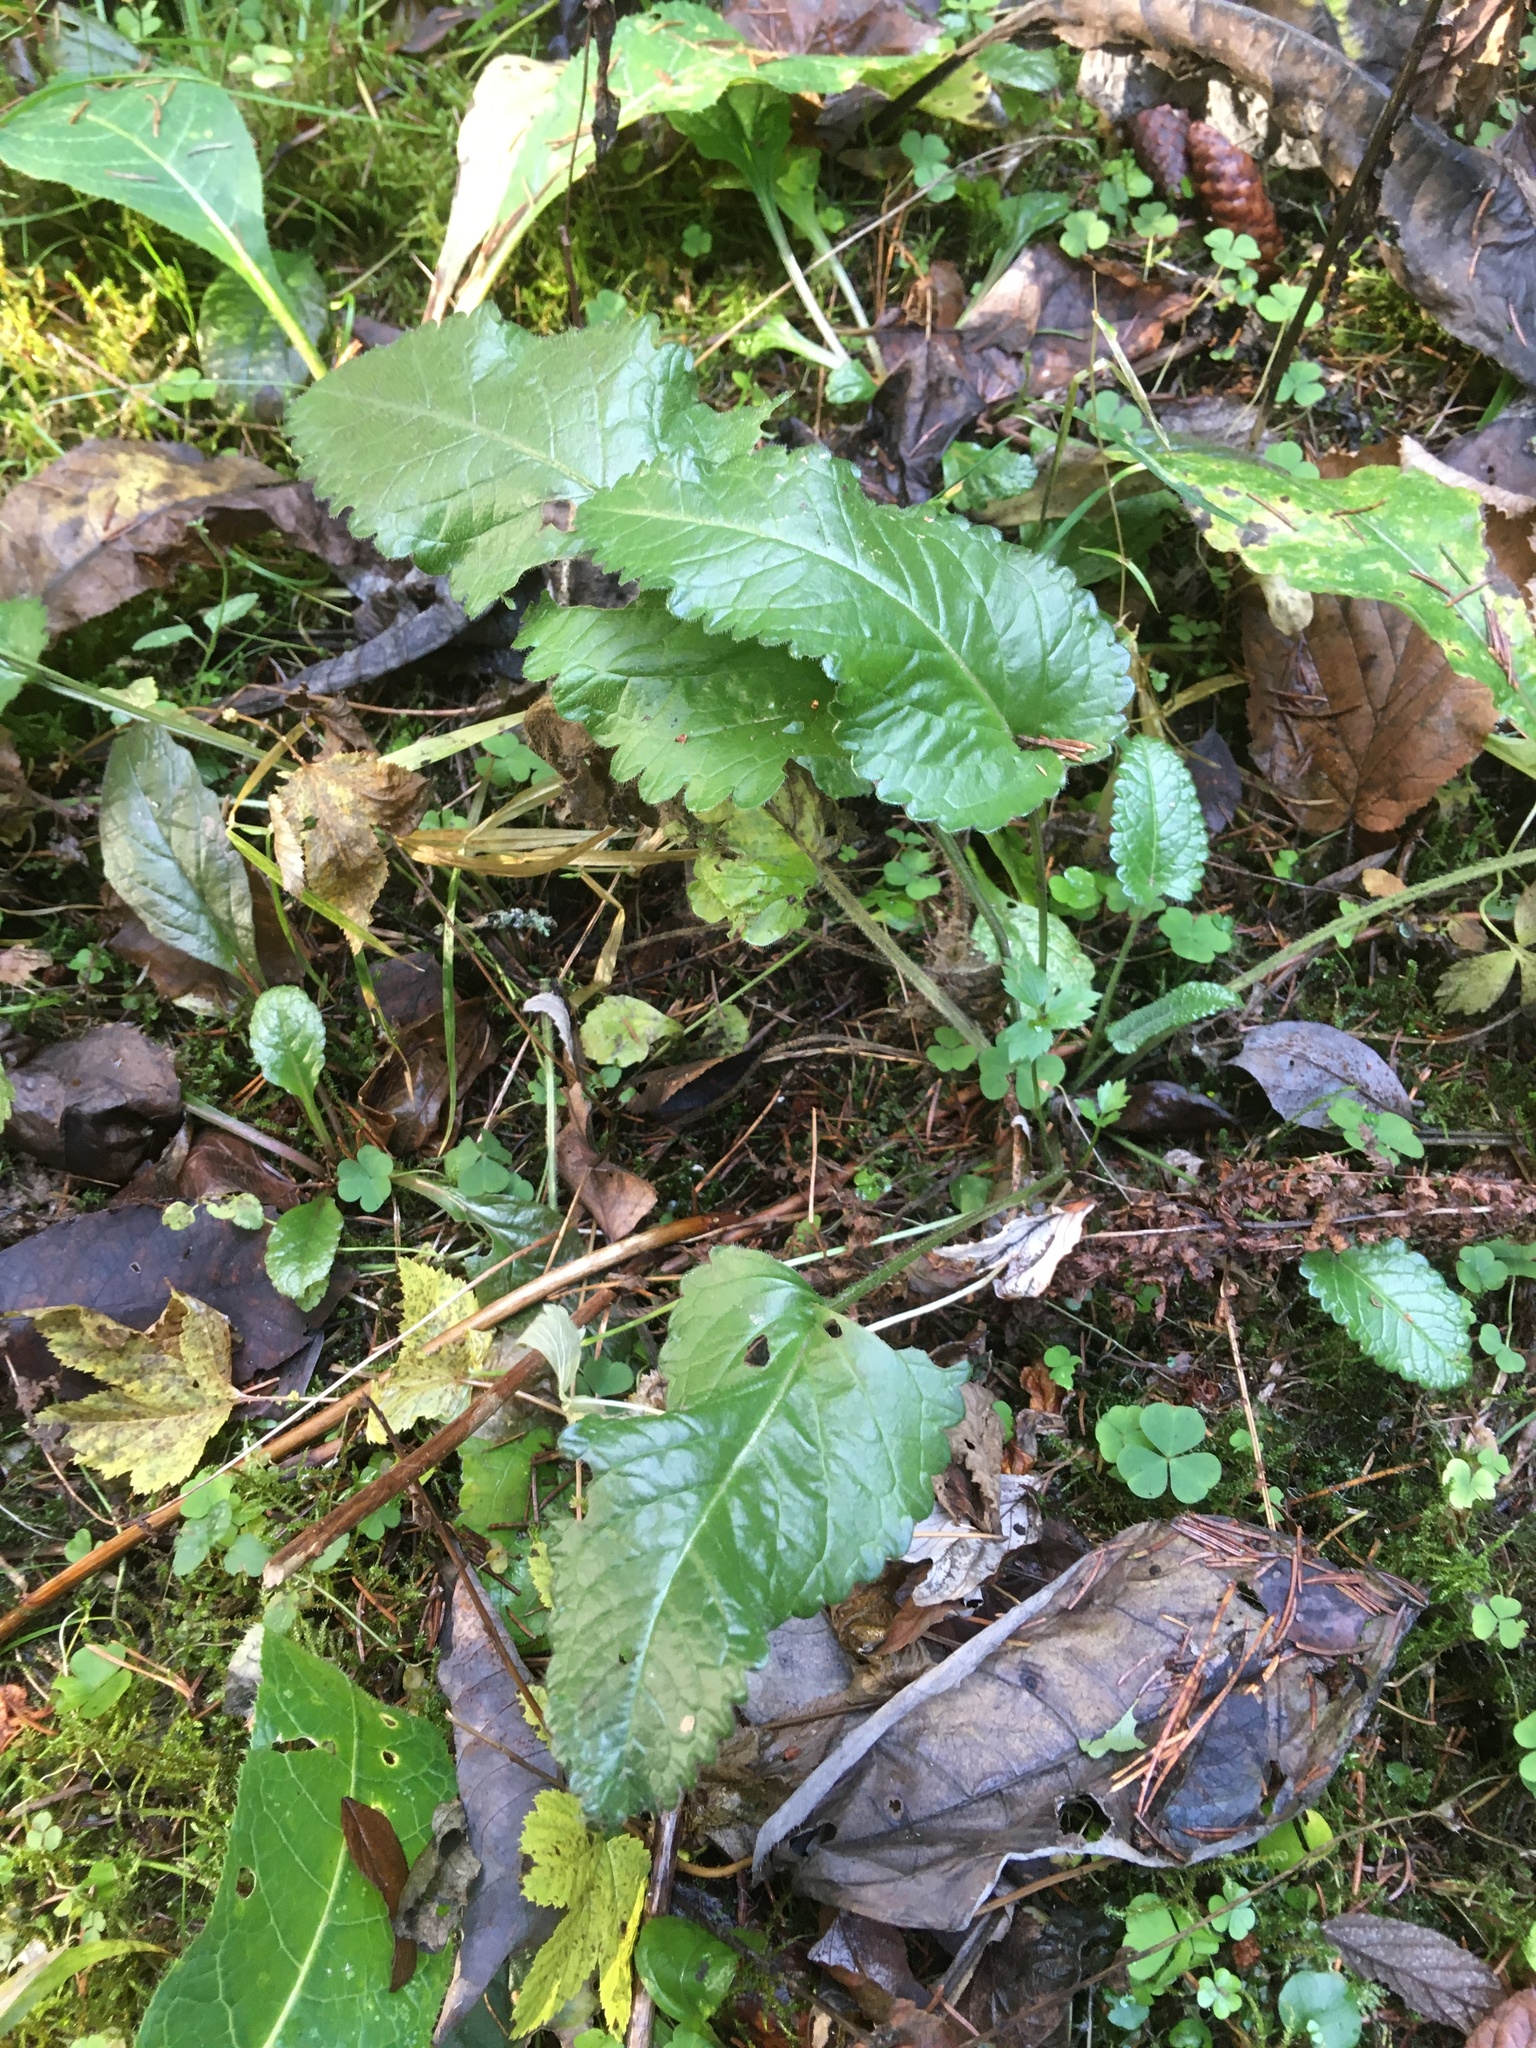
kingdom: Plantae
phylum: Tracheophyta
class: Magnoliopsida
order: Lamiales
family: Lamiaceae
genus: Betonica
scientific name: Betonica officinalis
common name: Bishop's-wort
